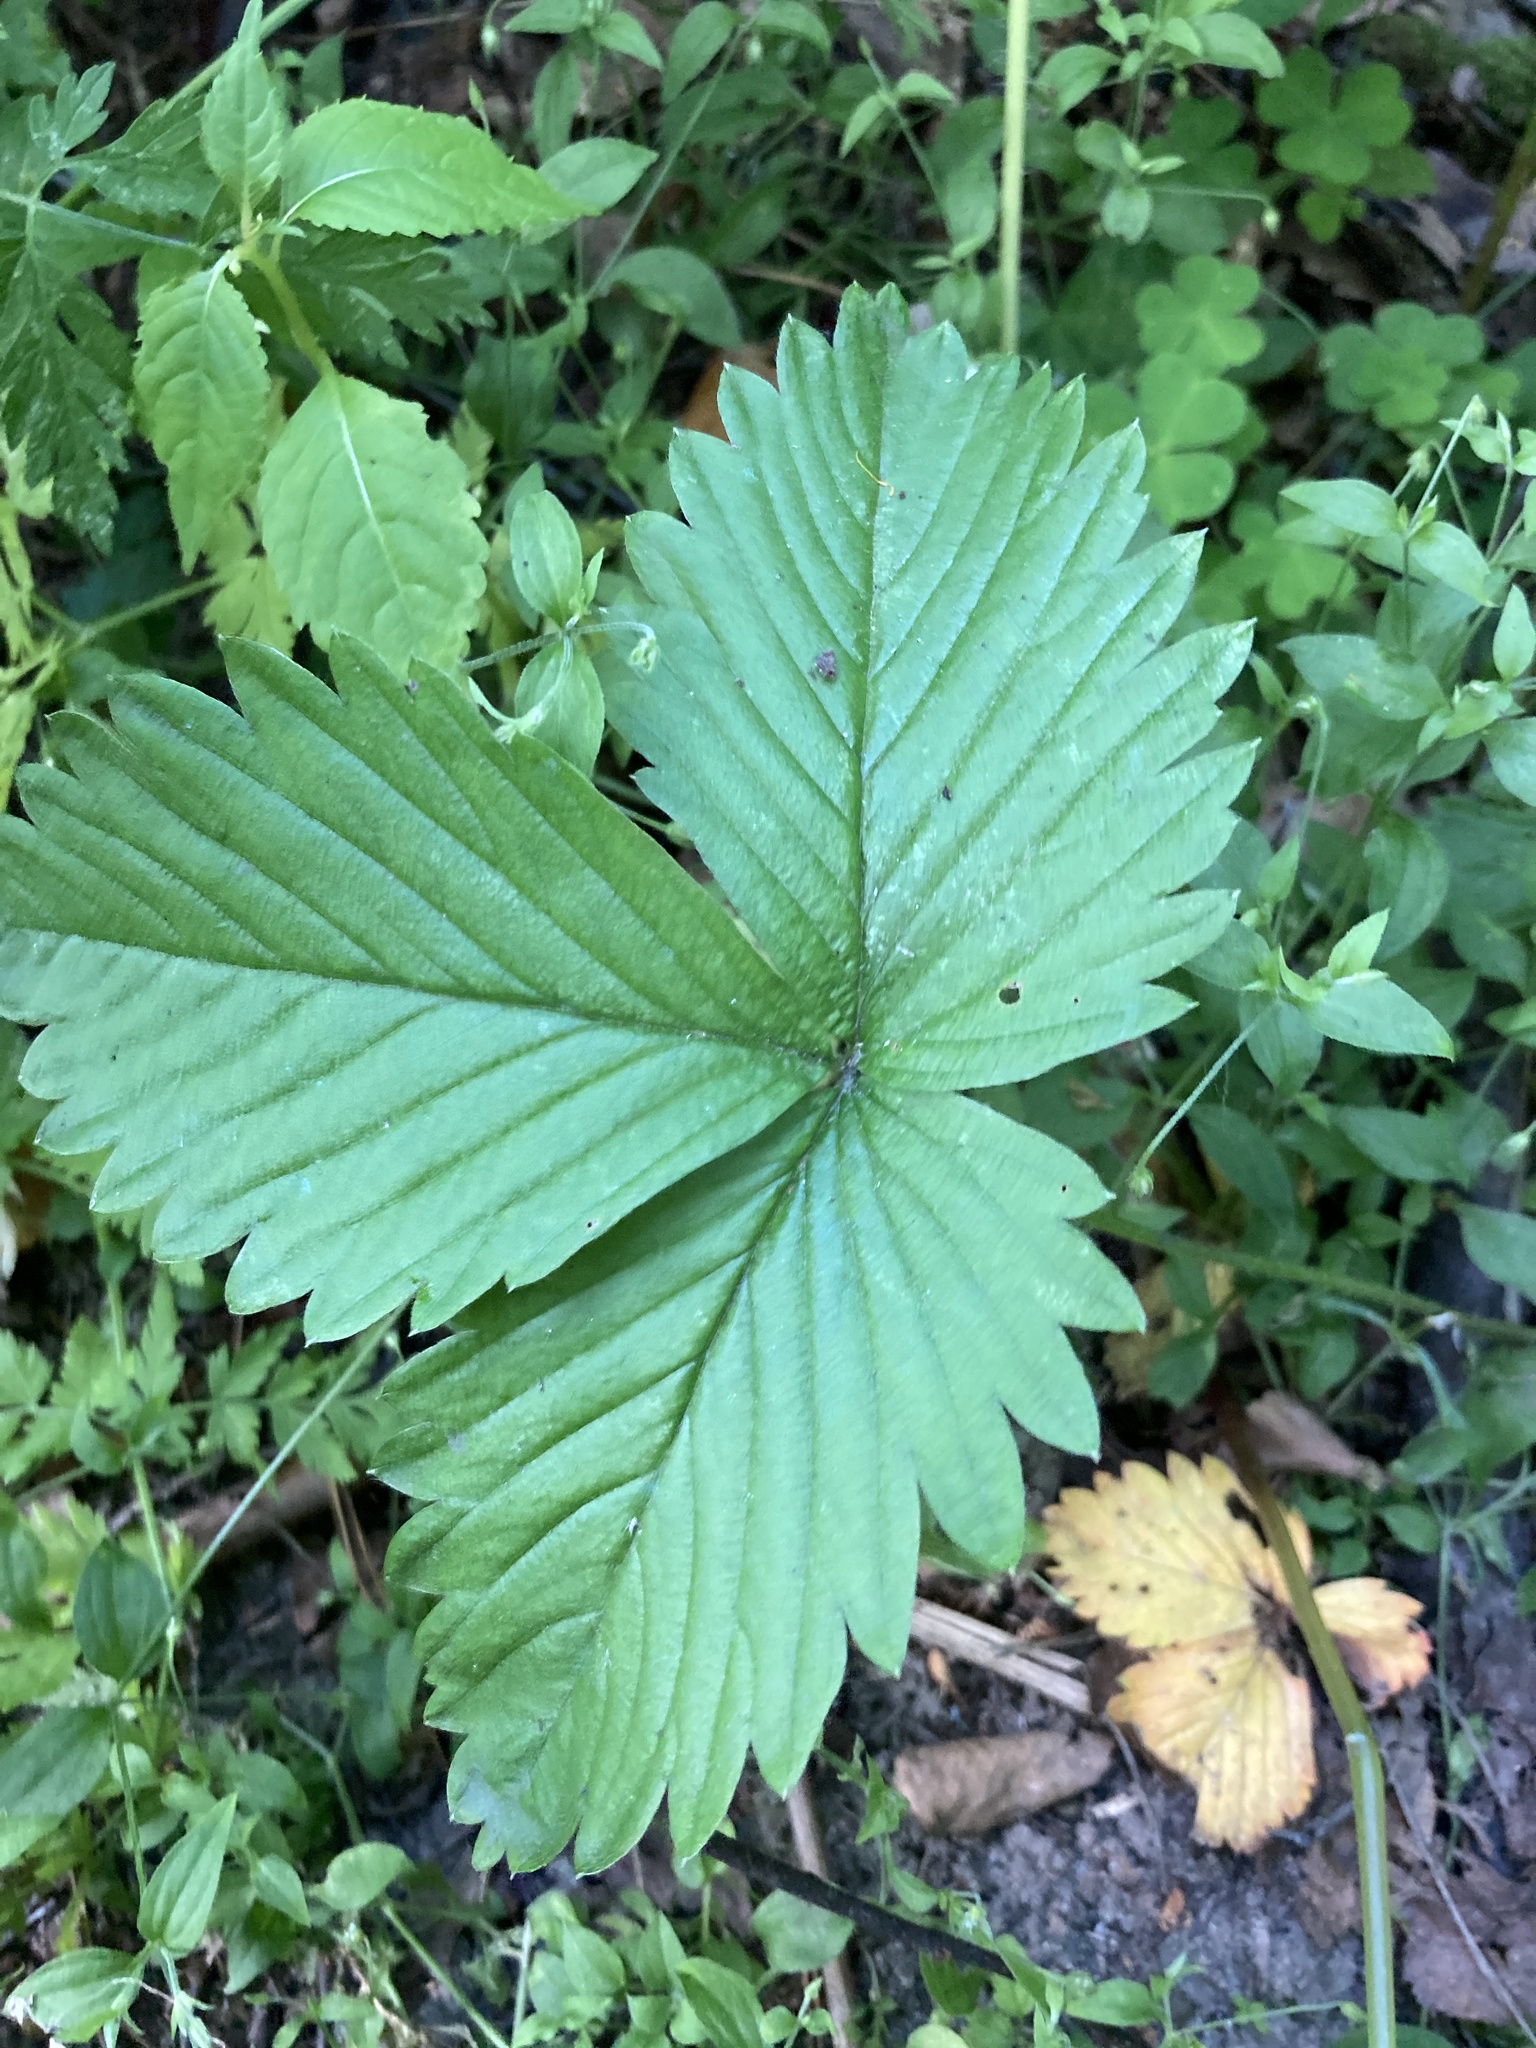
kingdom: Plantae
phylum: Tracheophyta
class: Magnoliopsida
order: Rosales
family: Rosaceae
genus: Fragaria
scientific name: Fragaria moschata
